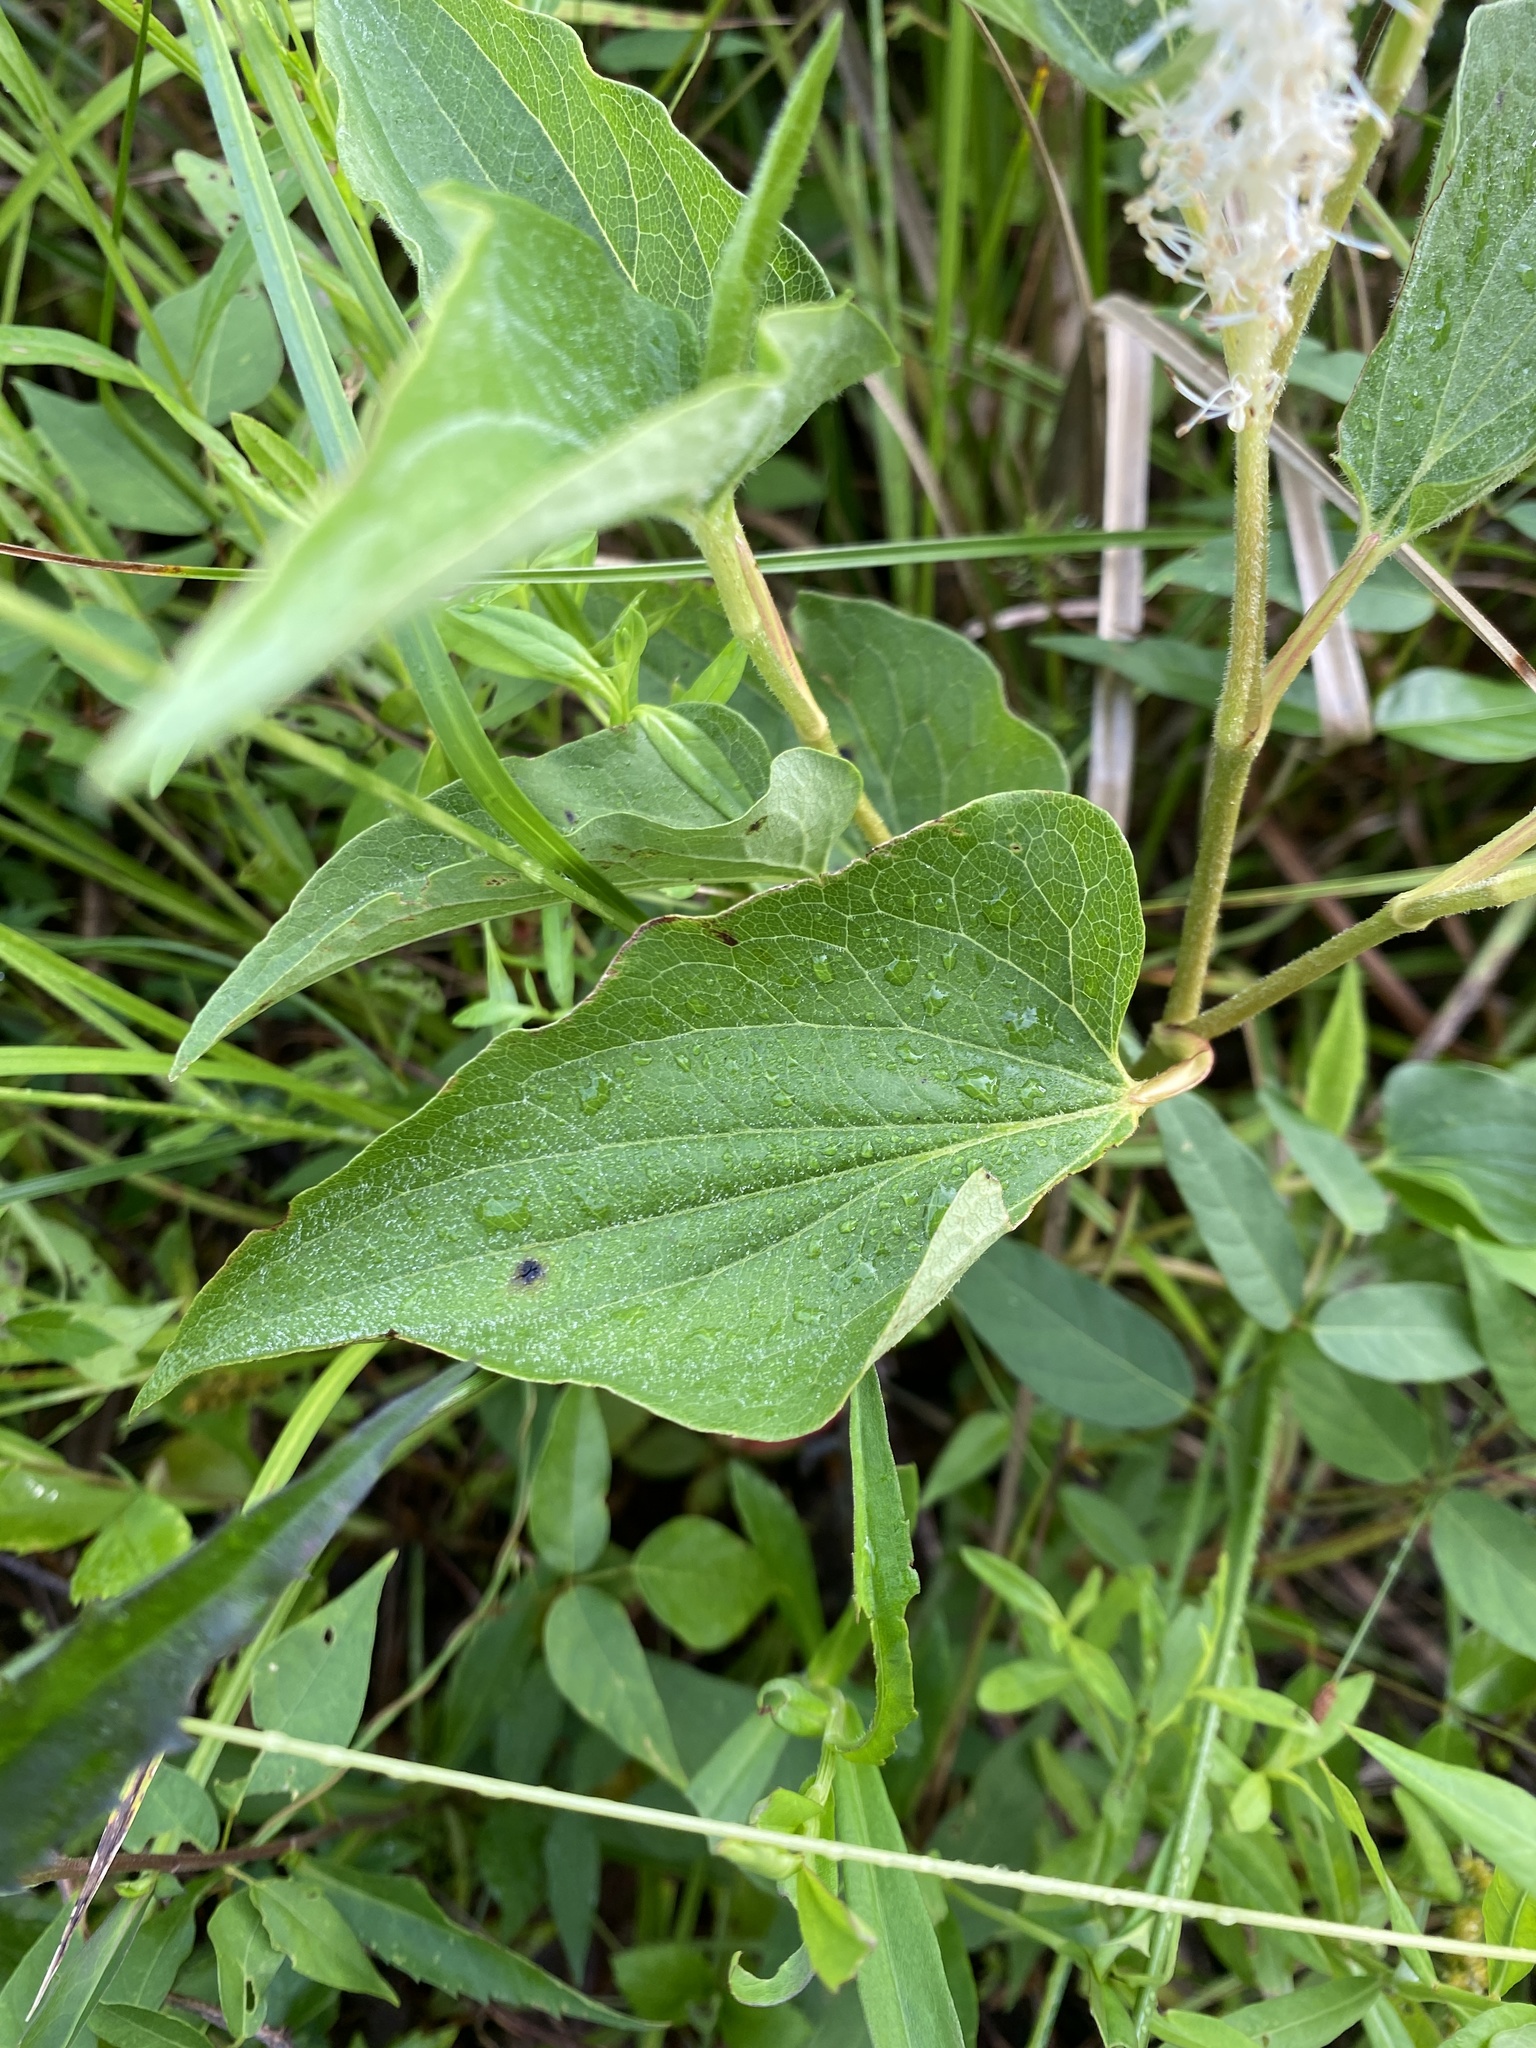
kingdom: Plantae
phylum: Tracheophyta
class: Magnoliopsida
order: Piperales
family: Saururaceae
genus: Saururus
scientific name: Saururus cernuus
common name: Lizard's-tail
